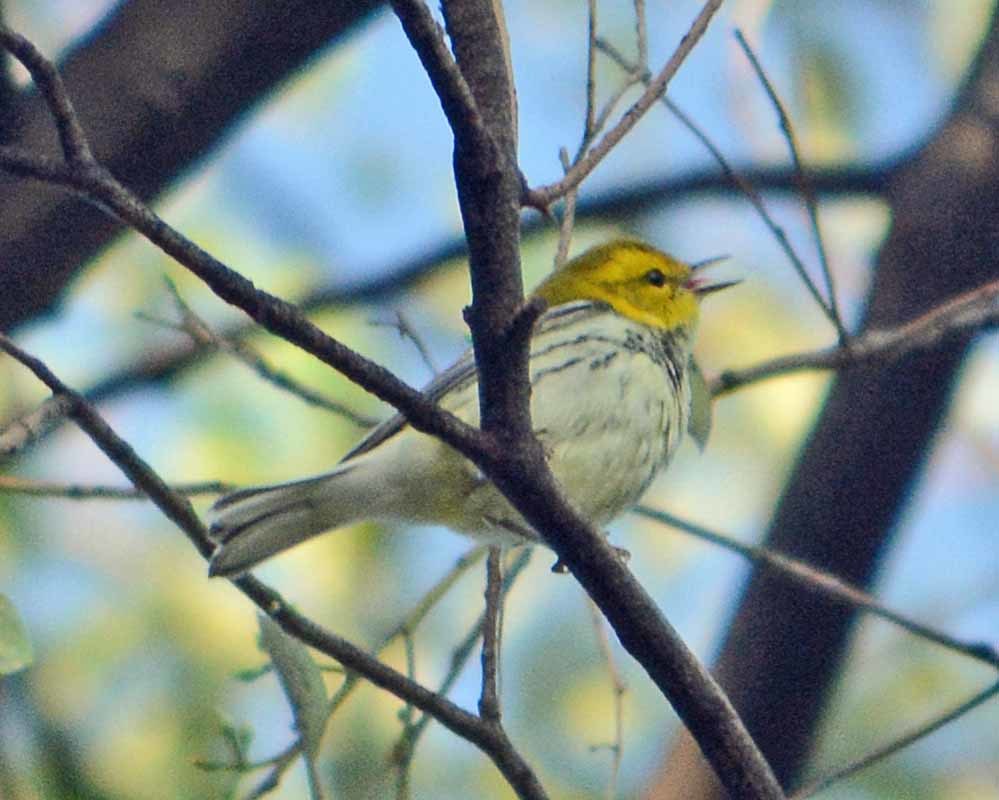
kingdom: Animalia
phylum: Chordata
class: Aves
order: Passeriformes
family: Parulidae
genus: Setophaga
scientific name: Setophaga virens
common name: Black-throated green warbler
